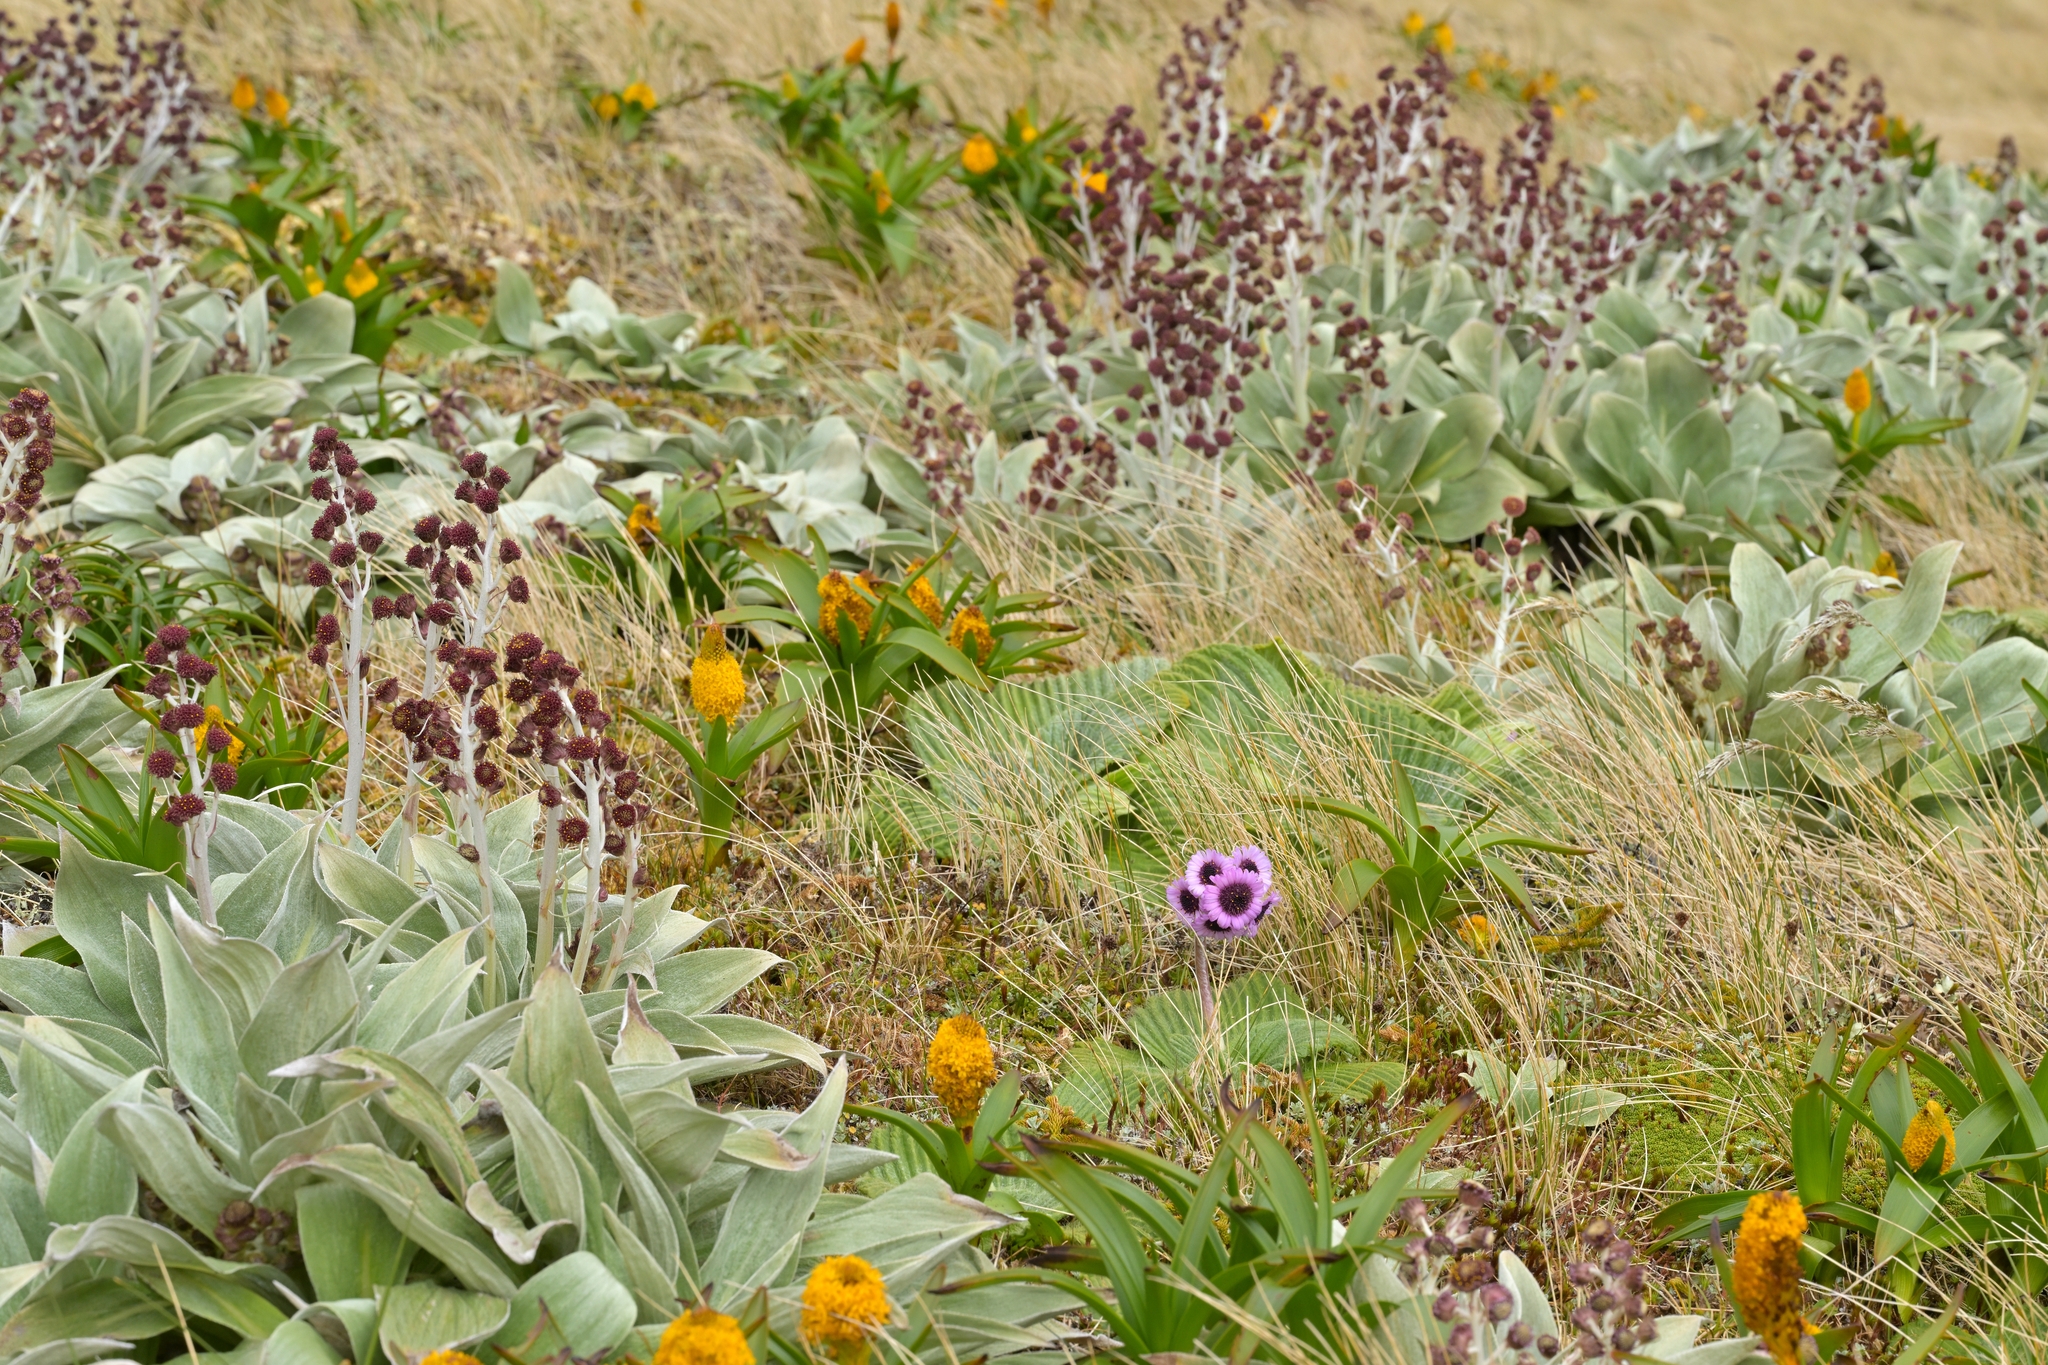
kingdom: Plantae
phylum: Tracheophyta
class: Magnoliopsida
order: Asterales
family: Asteraceae
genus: Pleurophyllum
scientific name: Pleurophyllum speciosum
